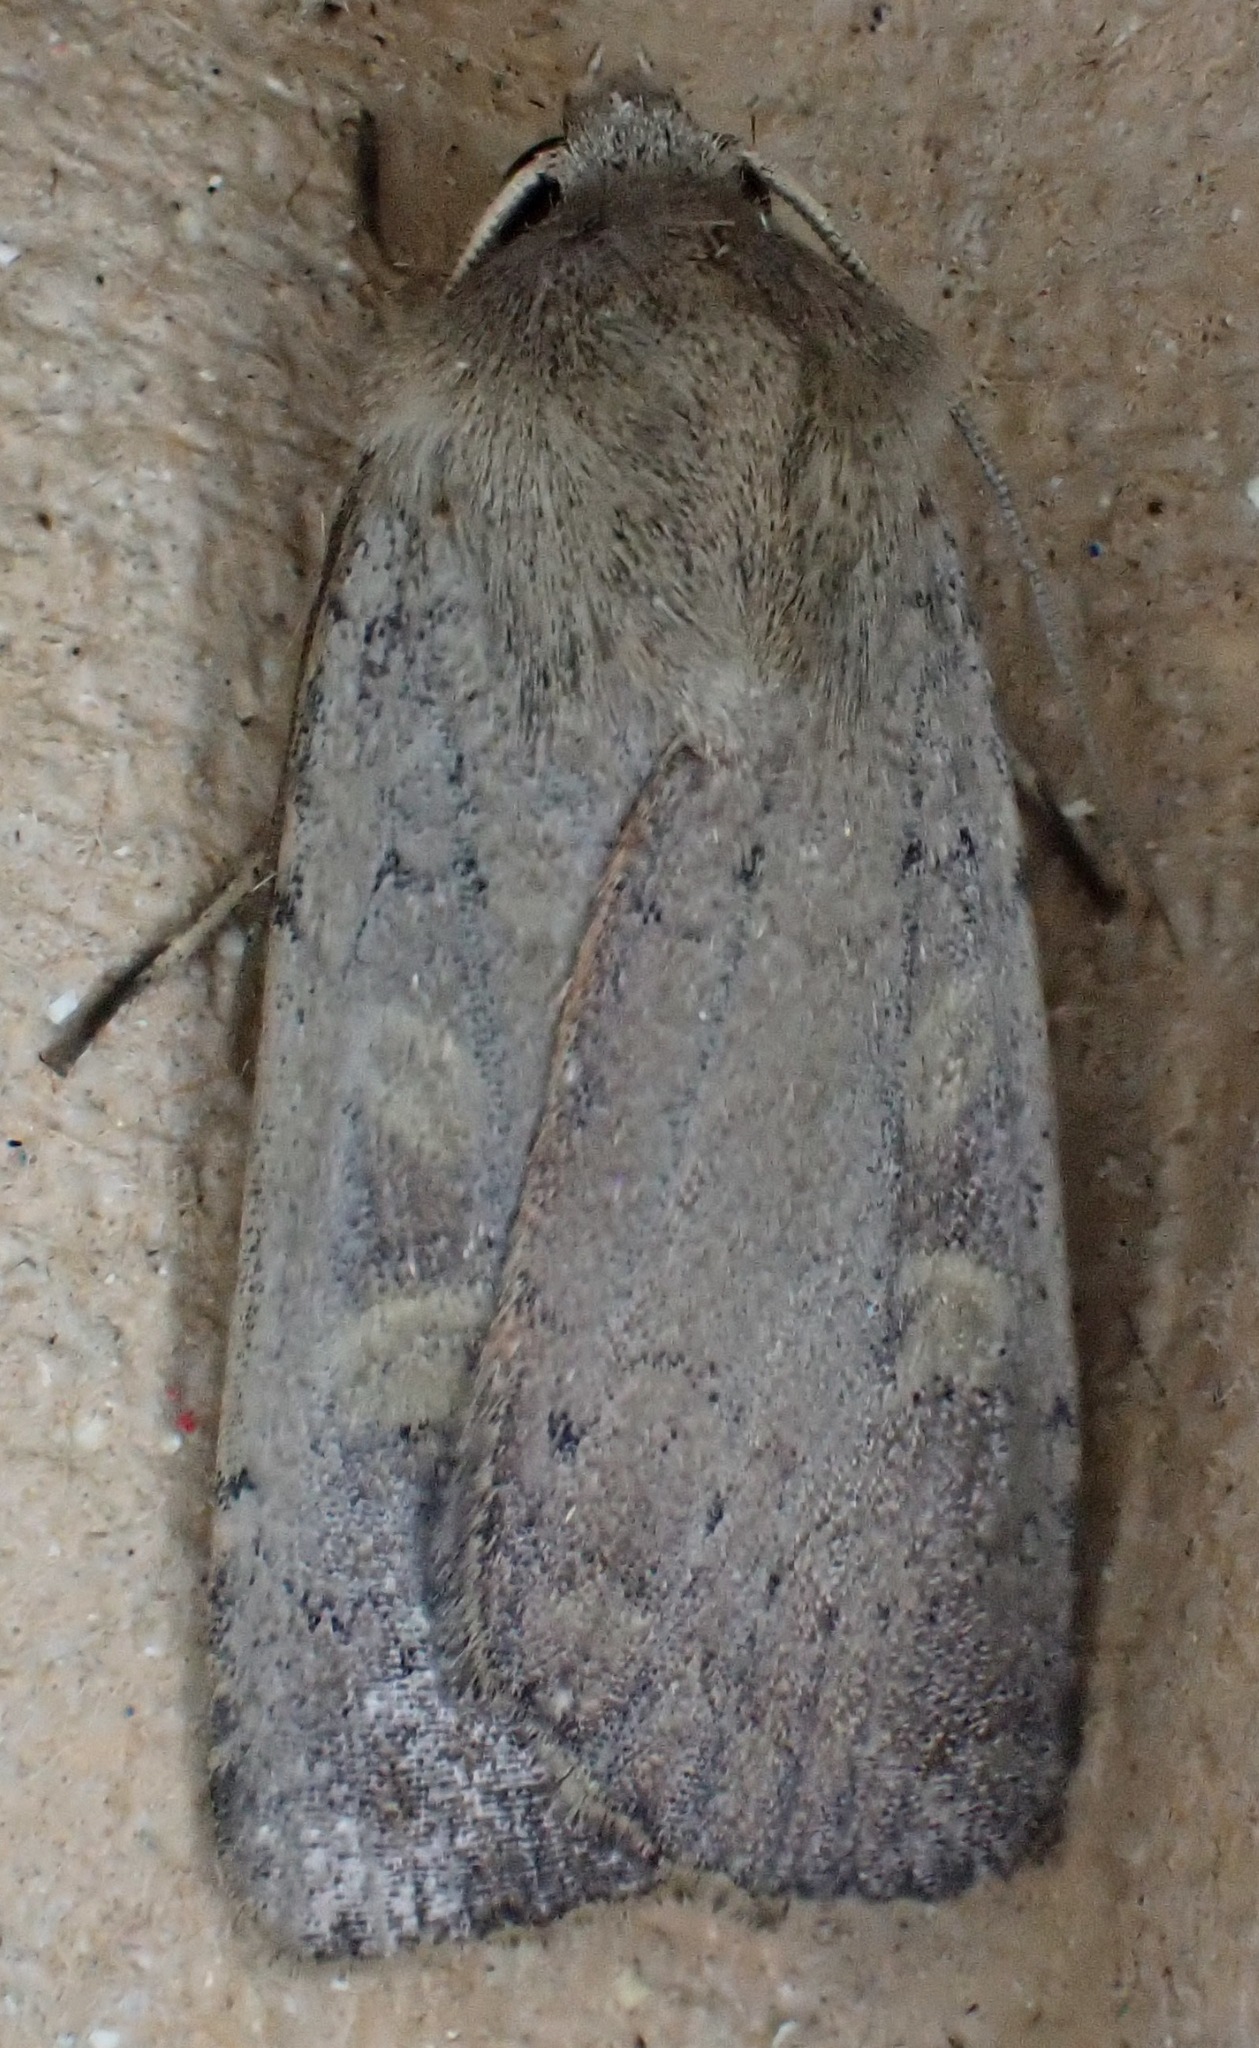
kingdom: Animalia
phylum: Arthropoda
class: Insecta
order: Lepidoptera
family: Noctuidae
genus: Xestia
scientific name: Xestia xanthographa
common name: Square-spot rustic
